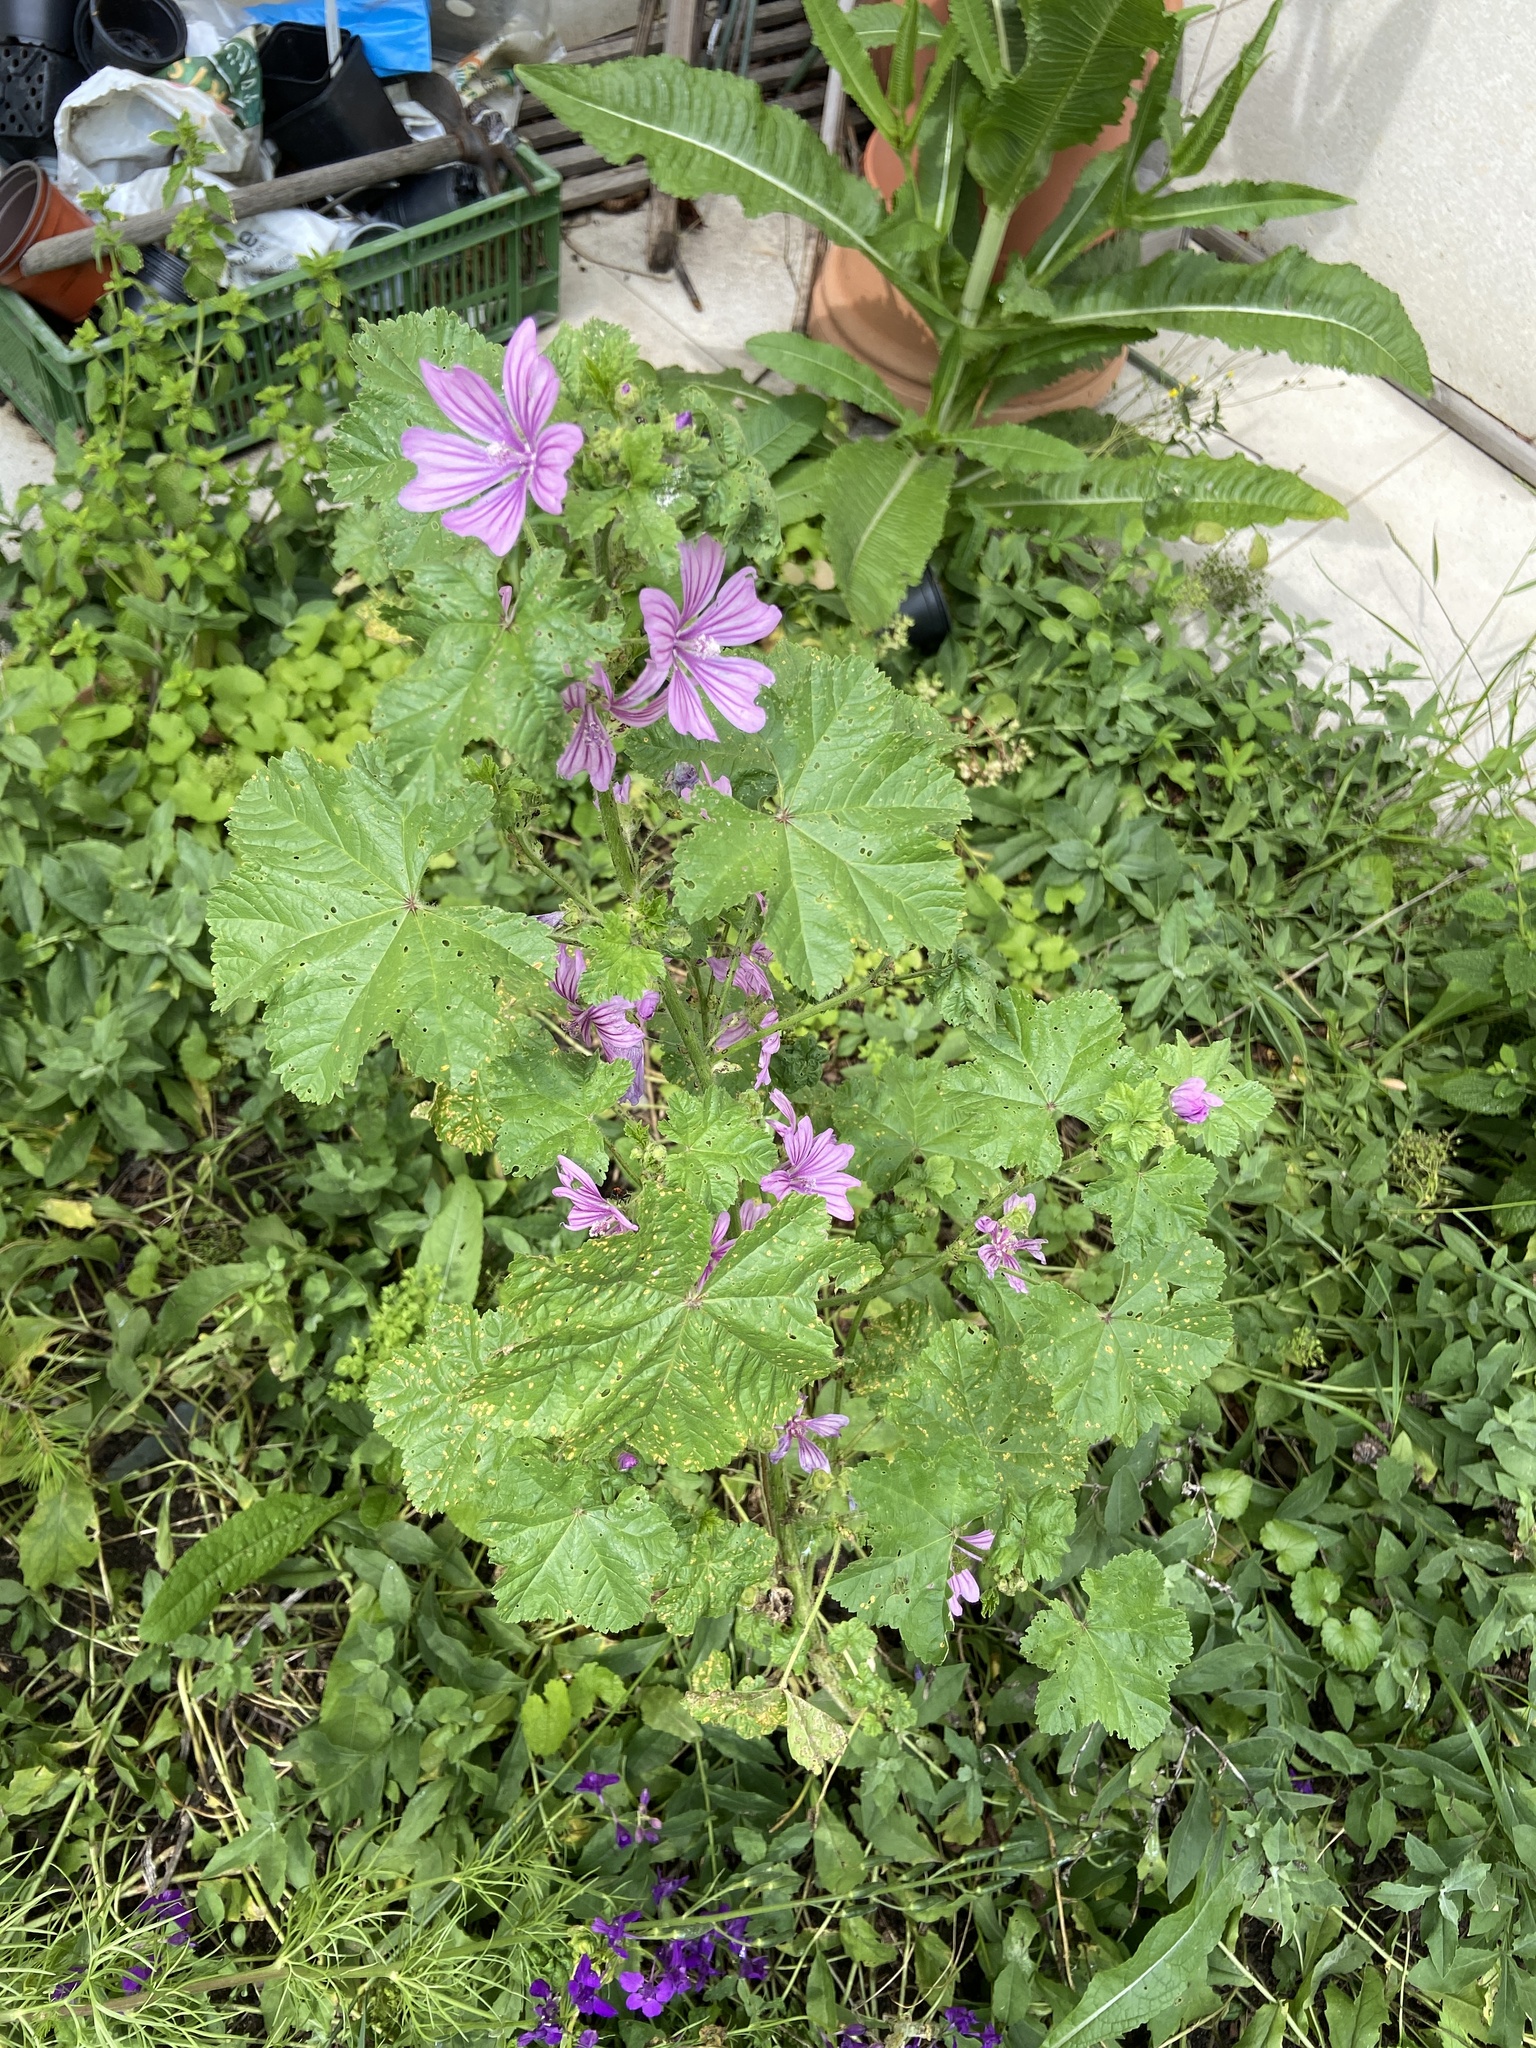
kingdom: Plantae
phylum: Tracheophyta
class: Magnoliopsida
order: Malvales
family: Malvaceae
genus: Malva
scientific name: Malva sylvestris
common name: Common mallow
